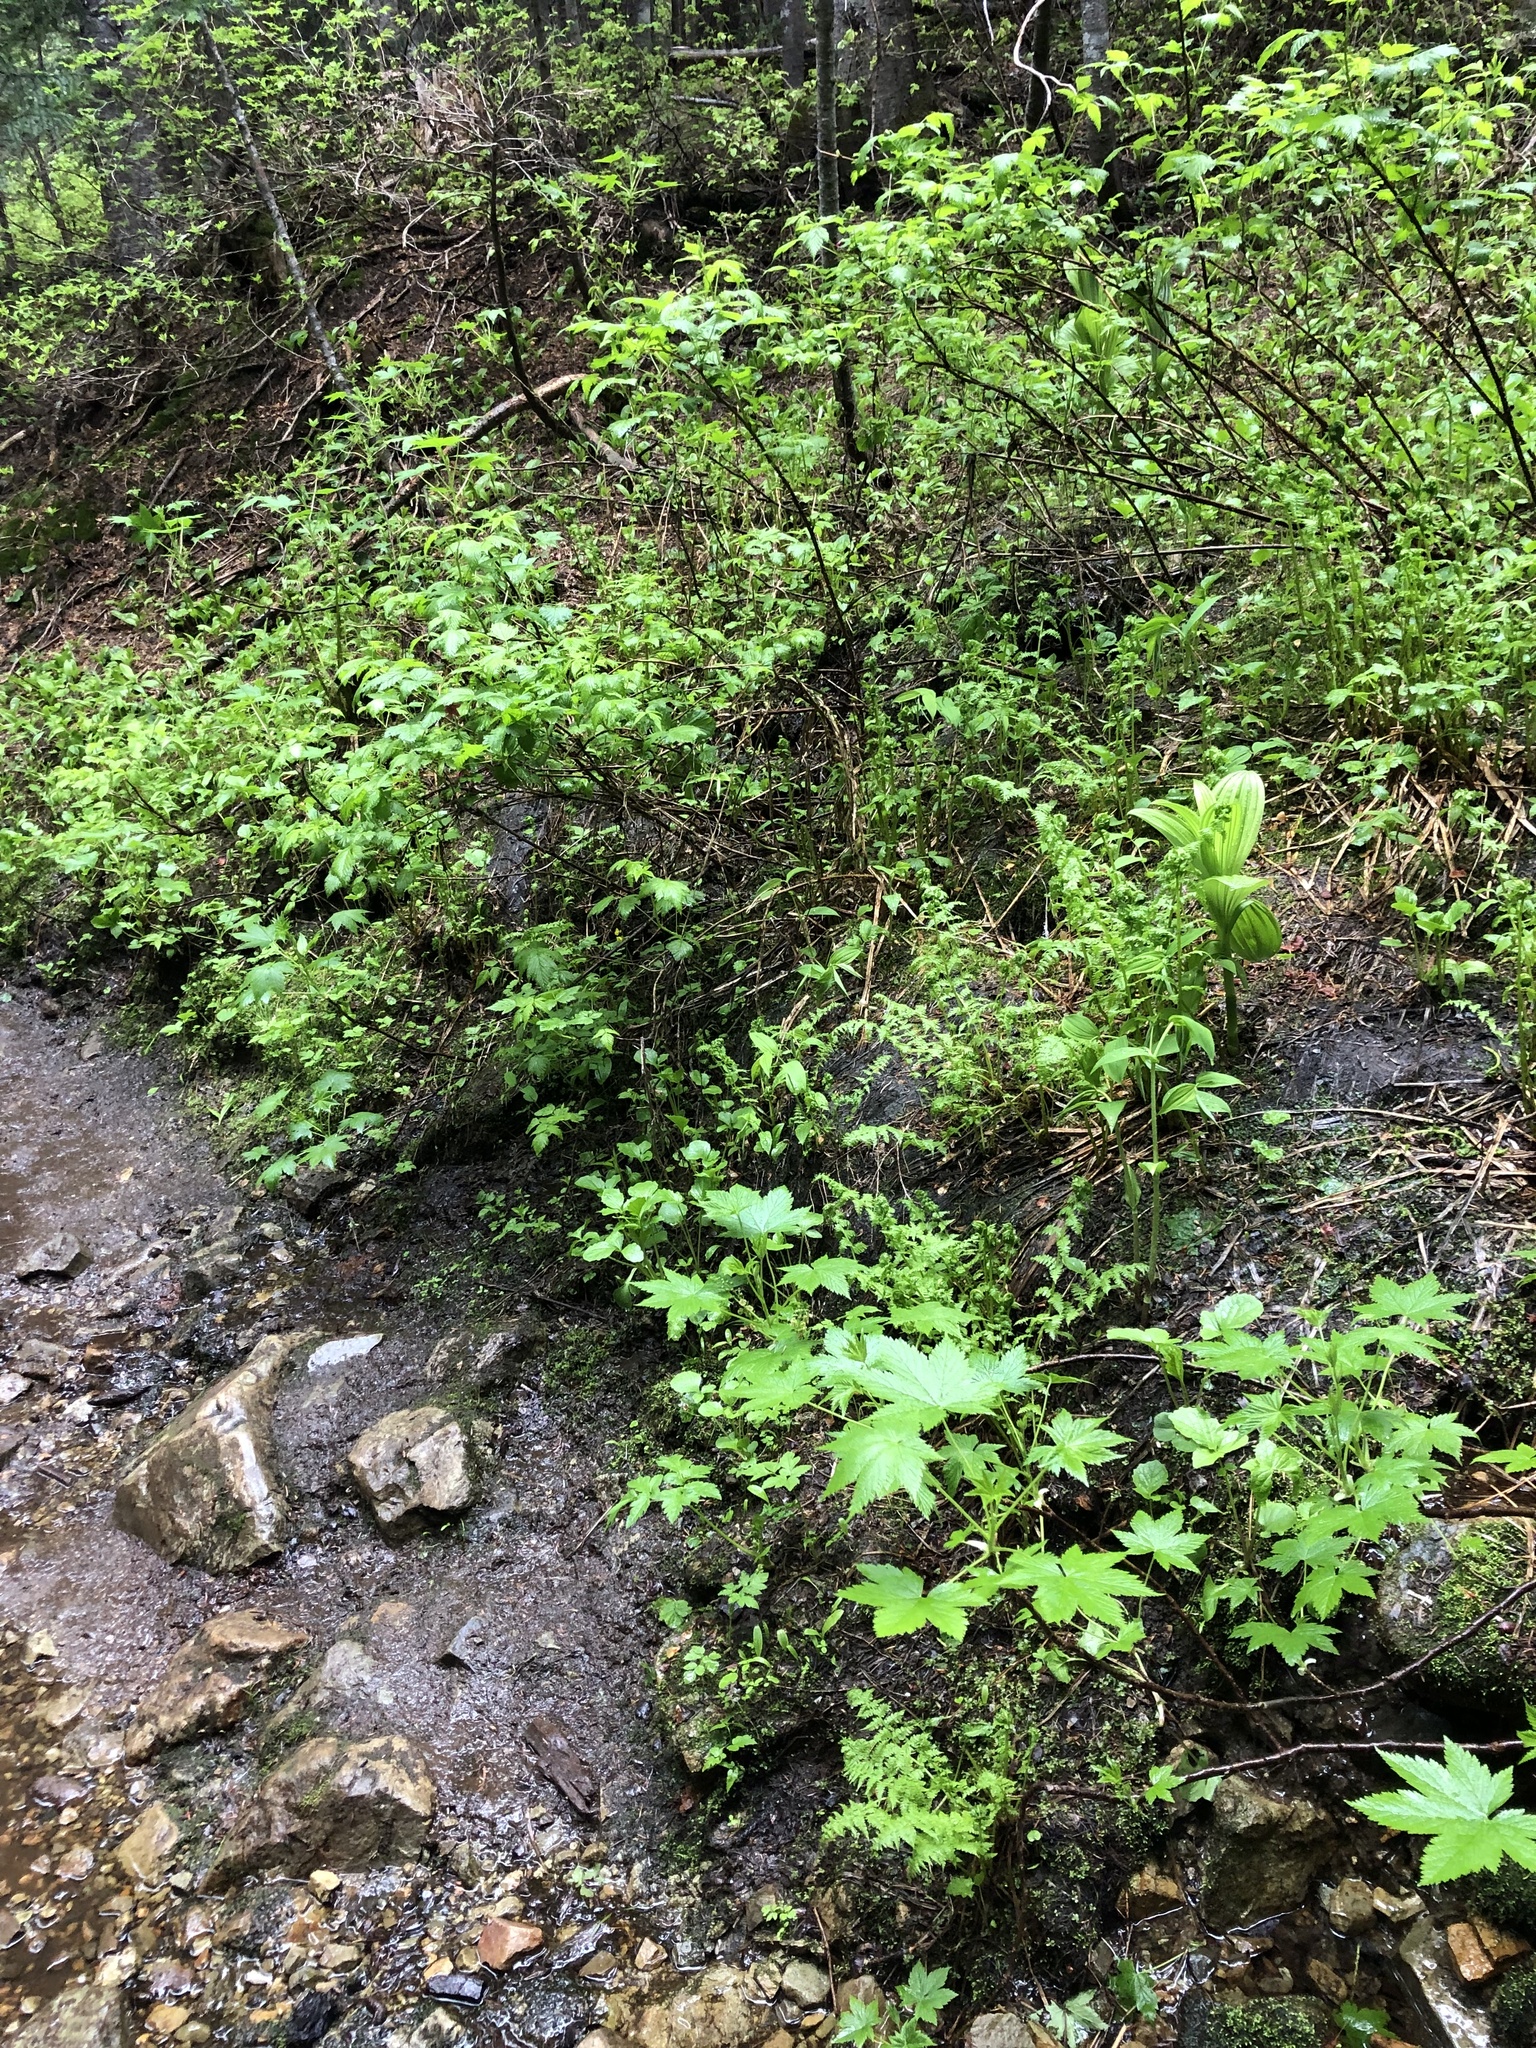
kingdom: Plantae
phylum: Tracheophyta
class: Magnoliopsida
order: Saxifragales
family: Grossulariaceae
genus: Ribes
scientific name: Ribes bracteosum
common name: California black currant
